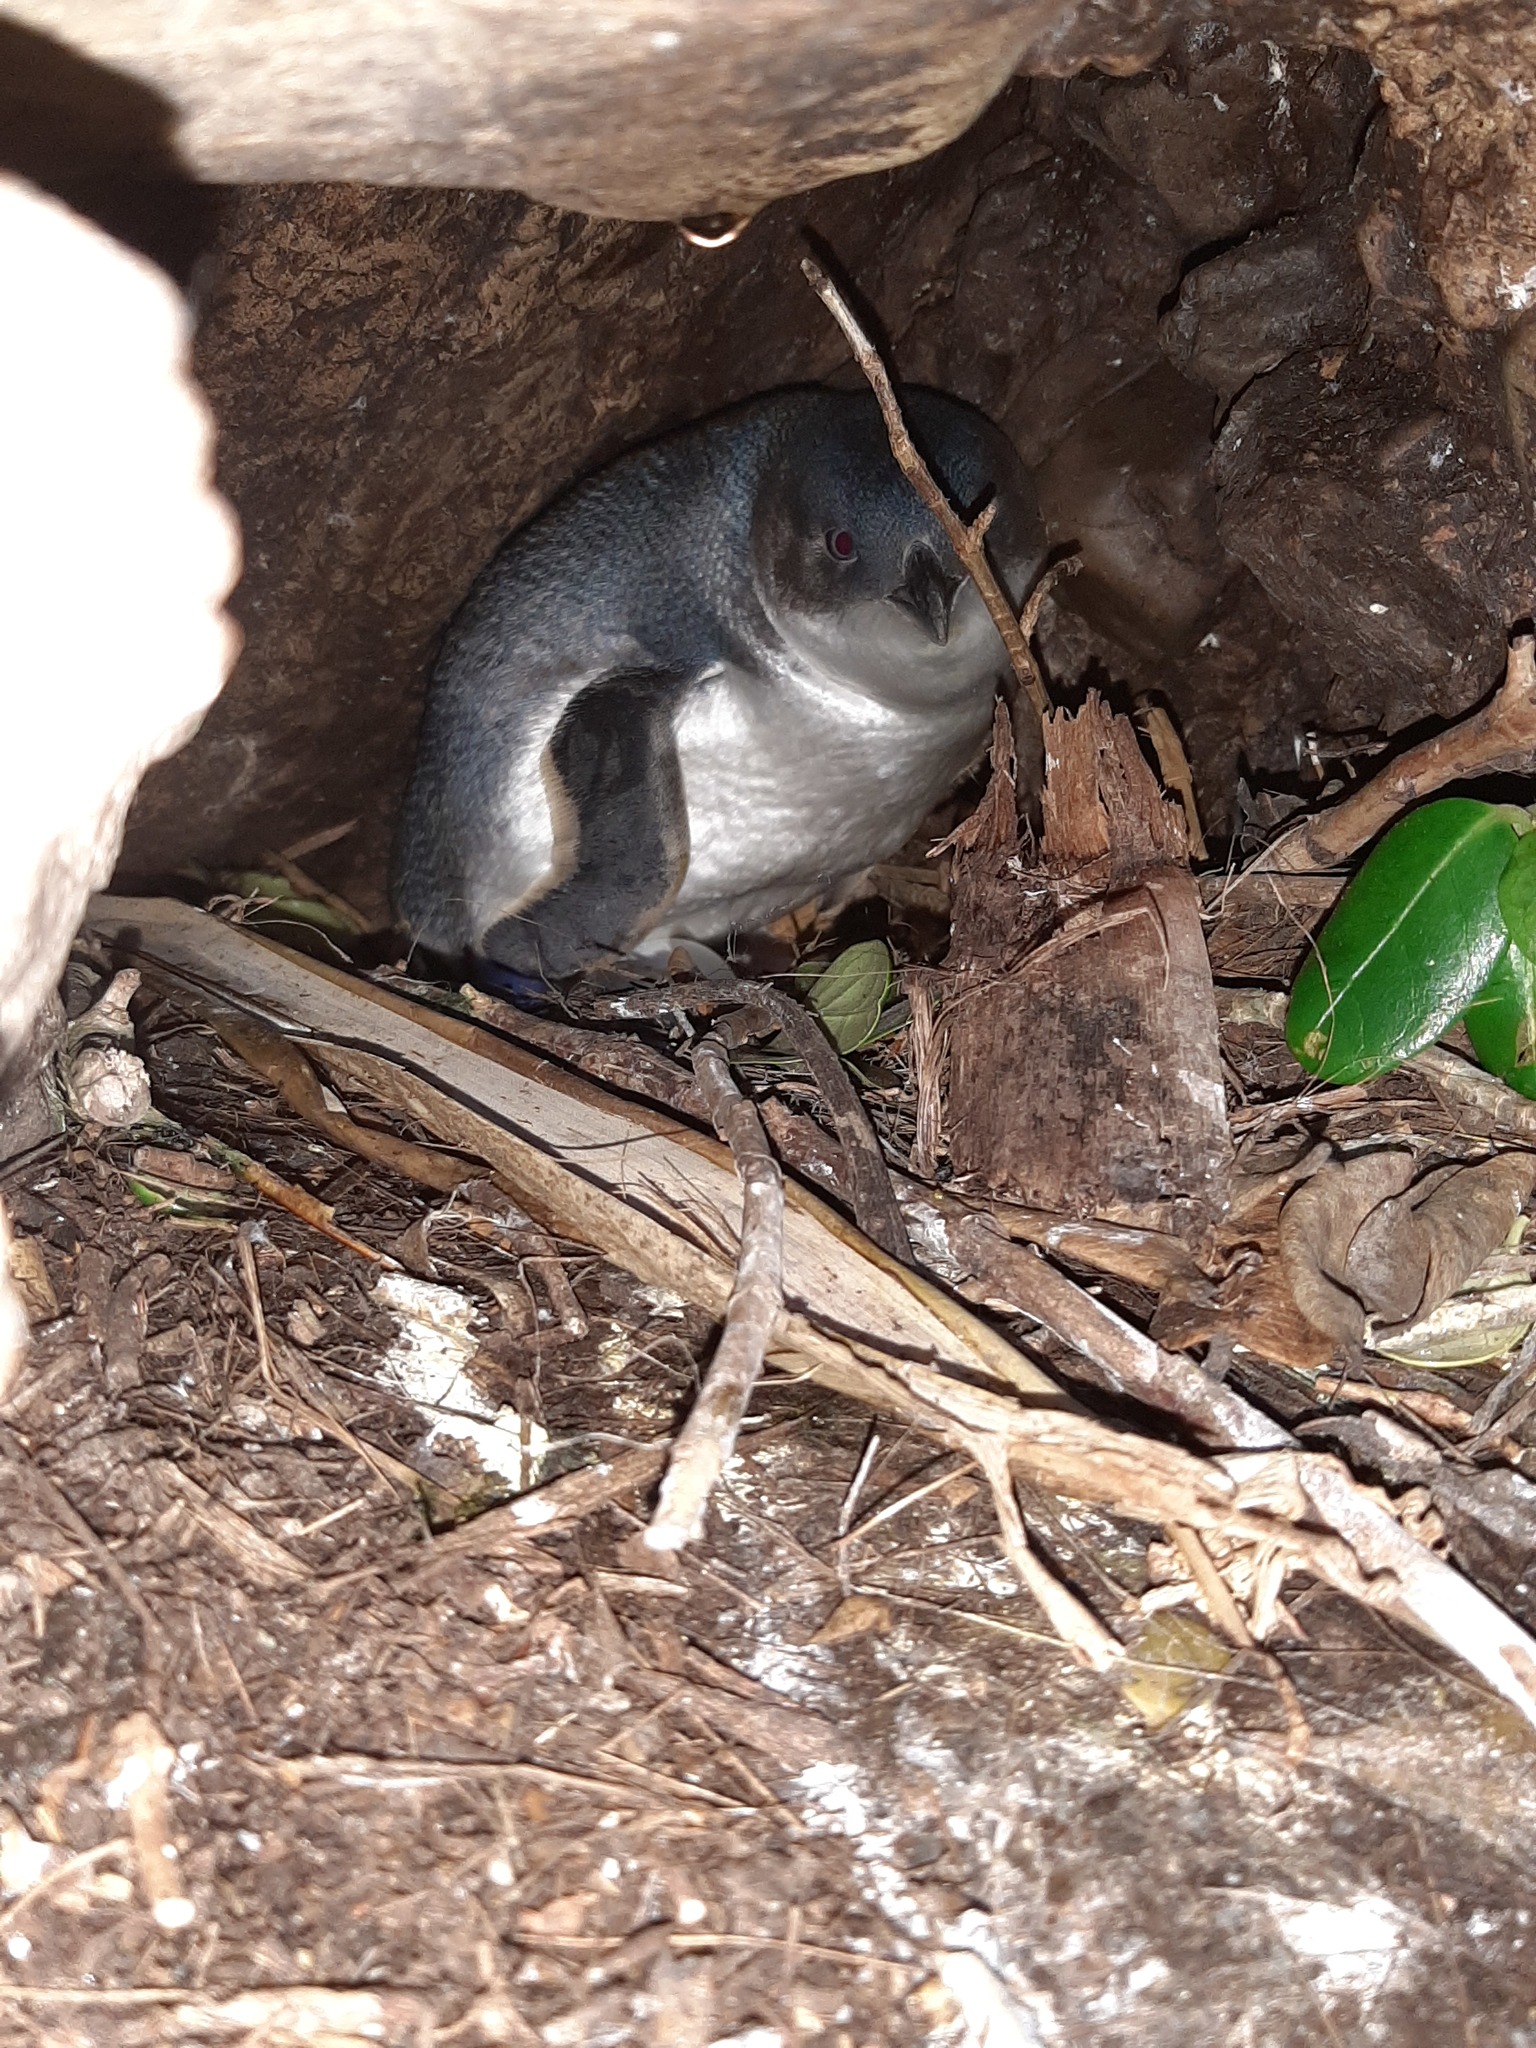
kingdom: Animalia
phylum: Chordata
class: Aves
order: Sphenisciformes
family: Spheniscidae
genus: Eudyptula
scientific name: Eudyptula minor
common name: Little penguin
